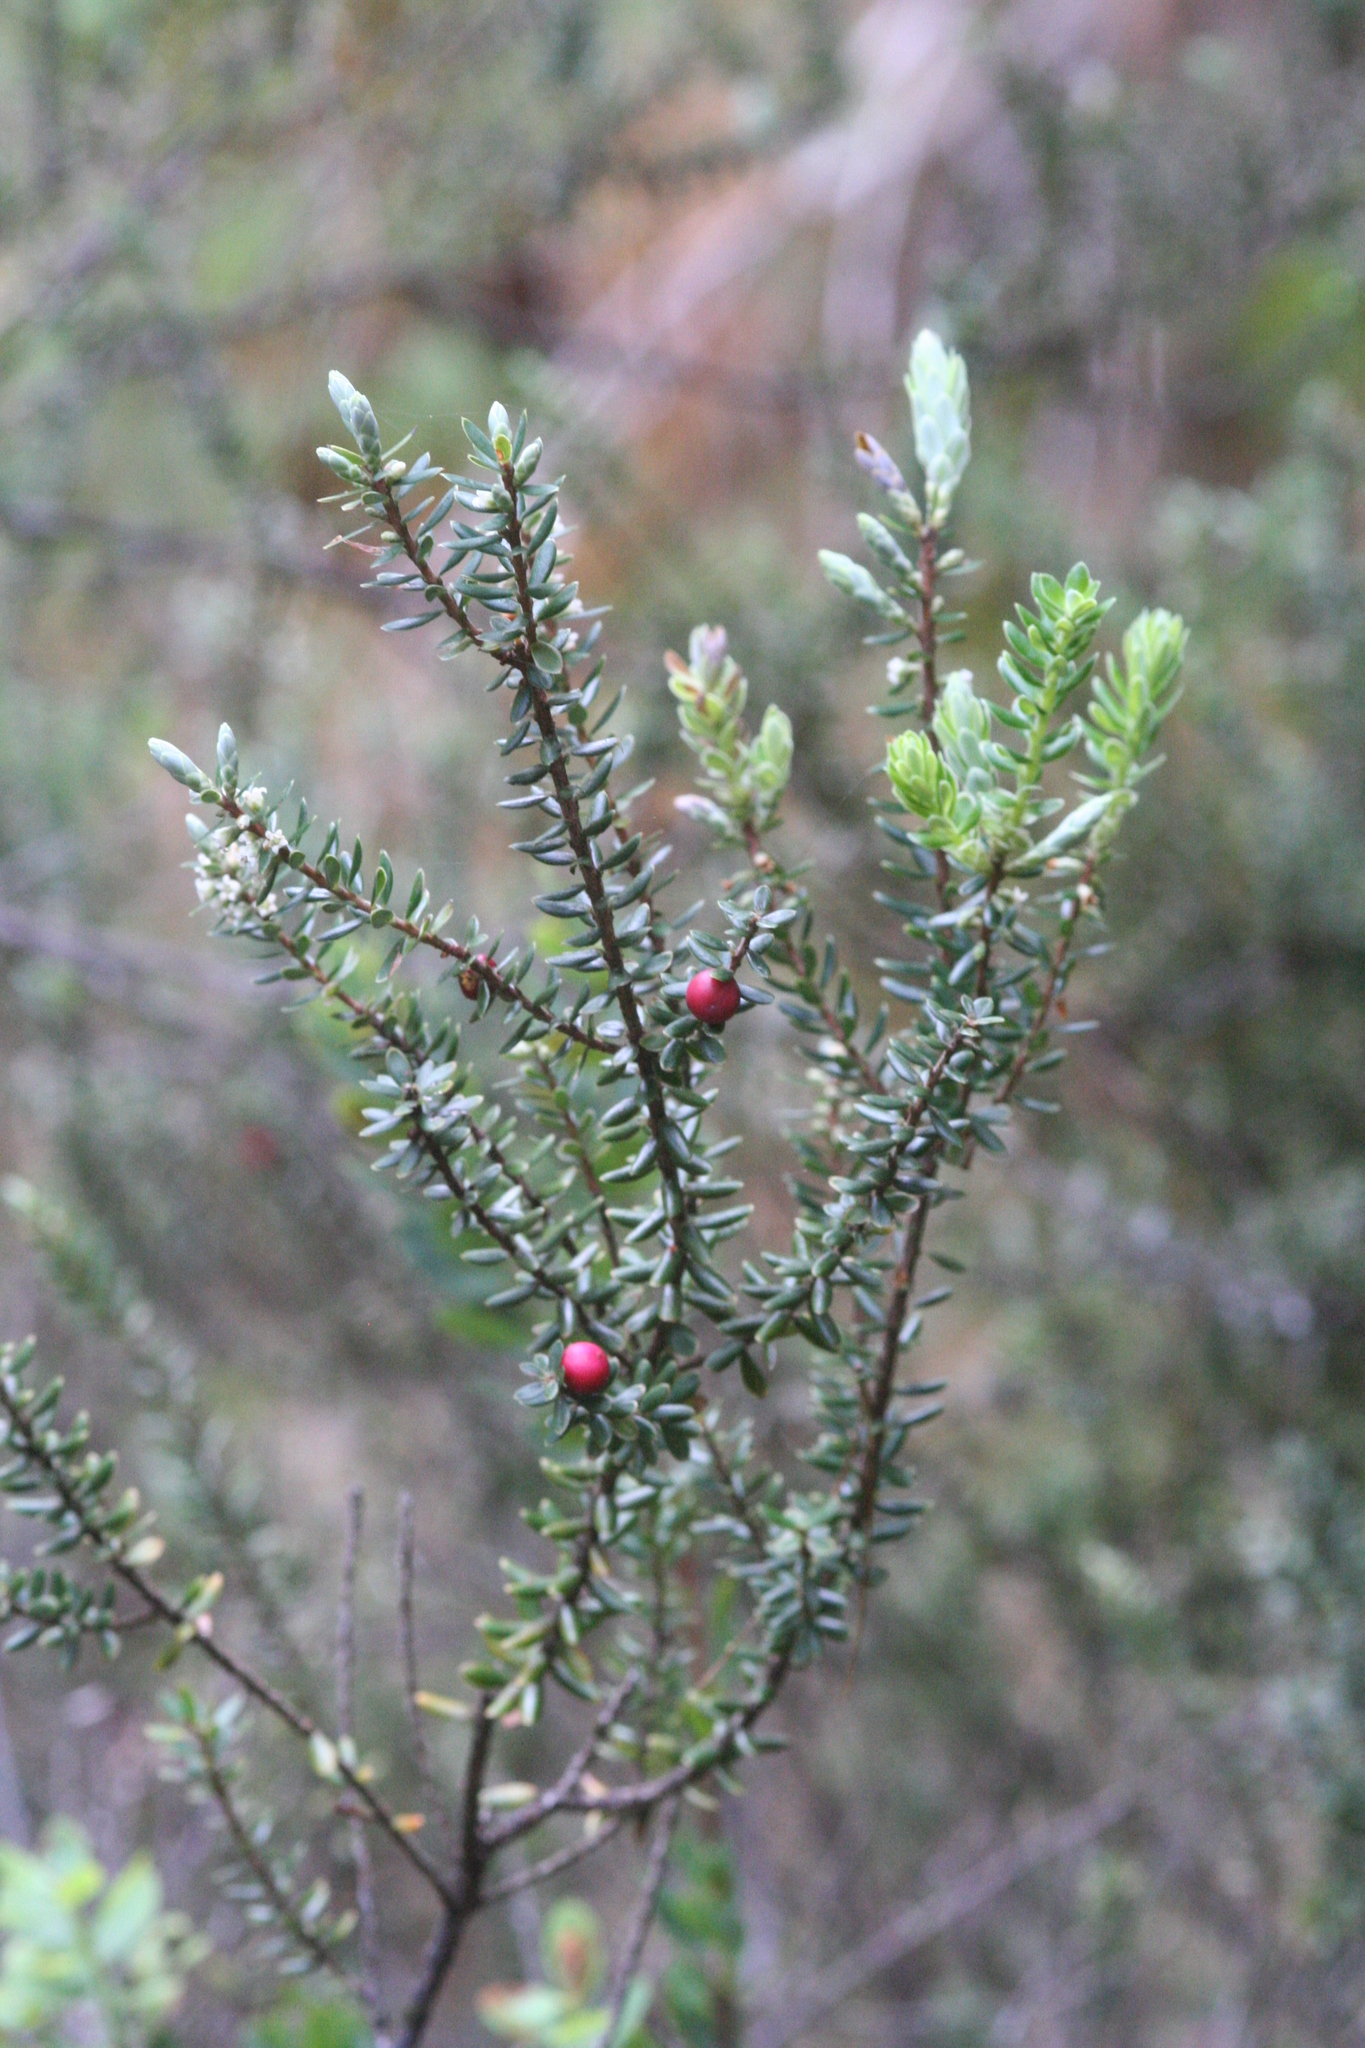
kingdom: Plantae
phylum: Tracheophyta
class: Magnoliopsida
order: Ericales
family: Ericaceae
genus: Leptecophylla
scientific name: Leptecophylla tameiameiae
